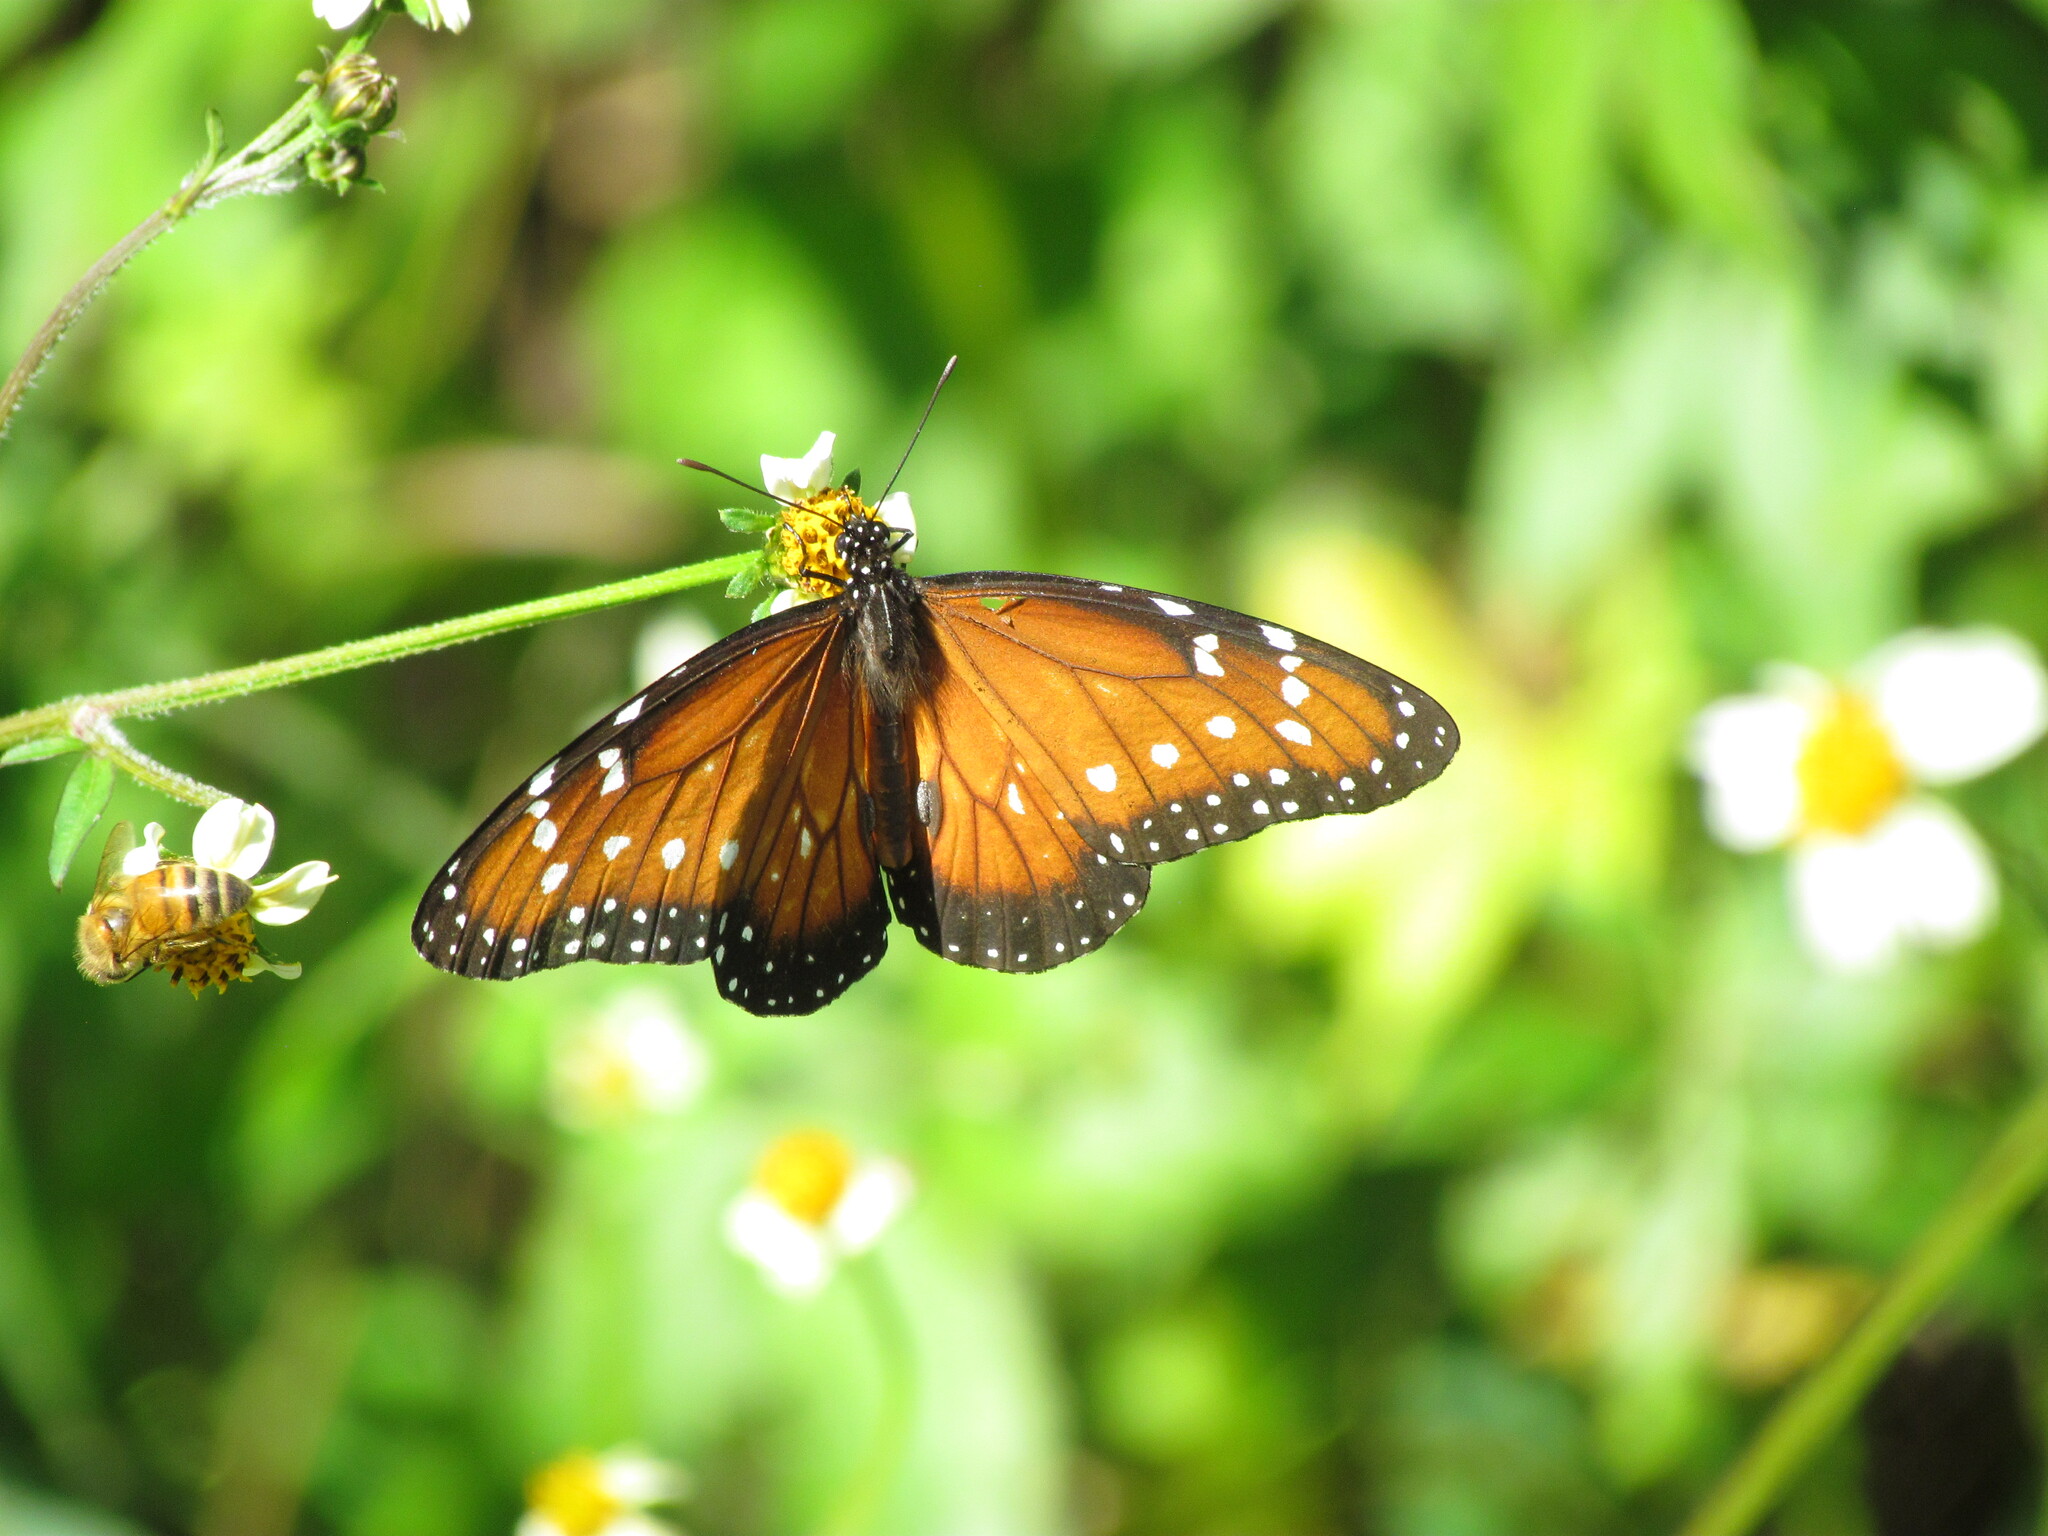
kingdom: Animalia
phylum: Arthropoda
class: Insecta
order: Lepidoptera
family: Nymphalidae
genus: Danaus
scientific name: Danaus eresimus
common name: Soldier
